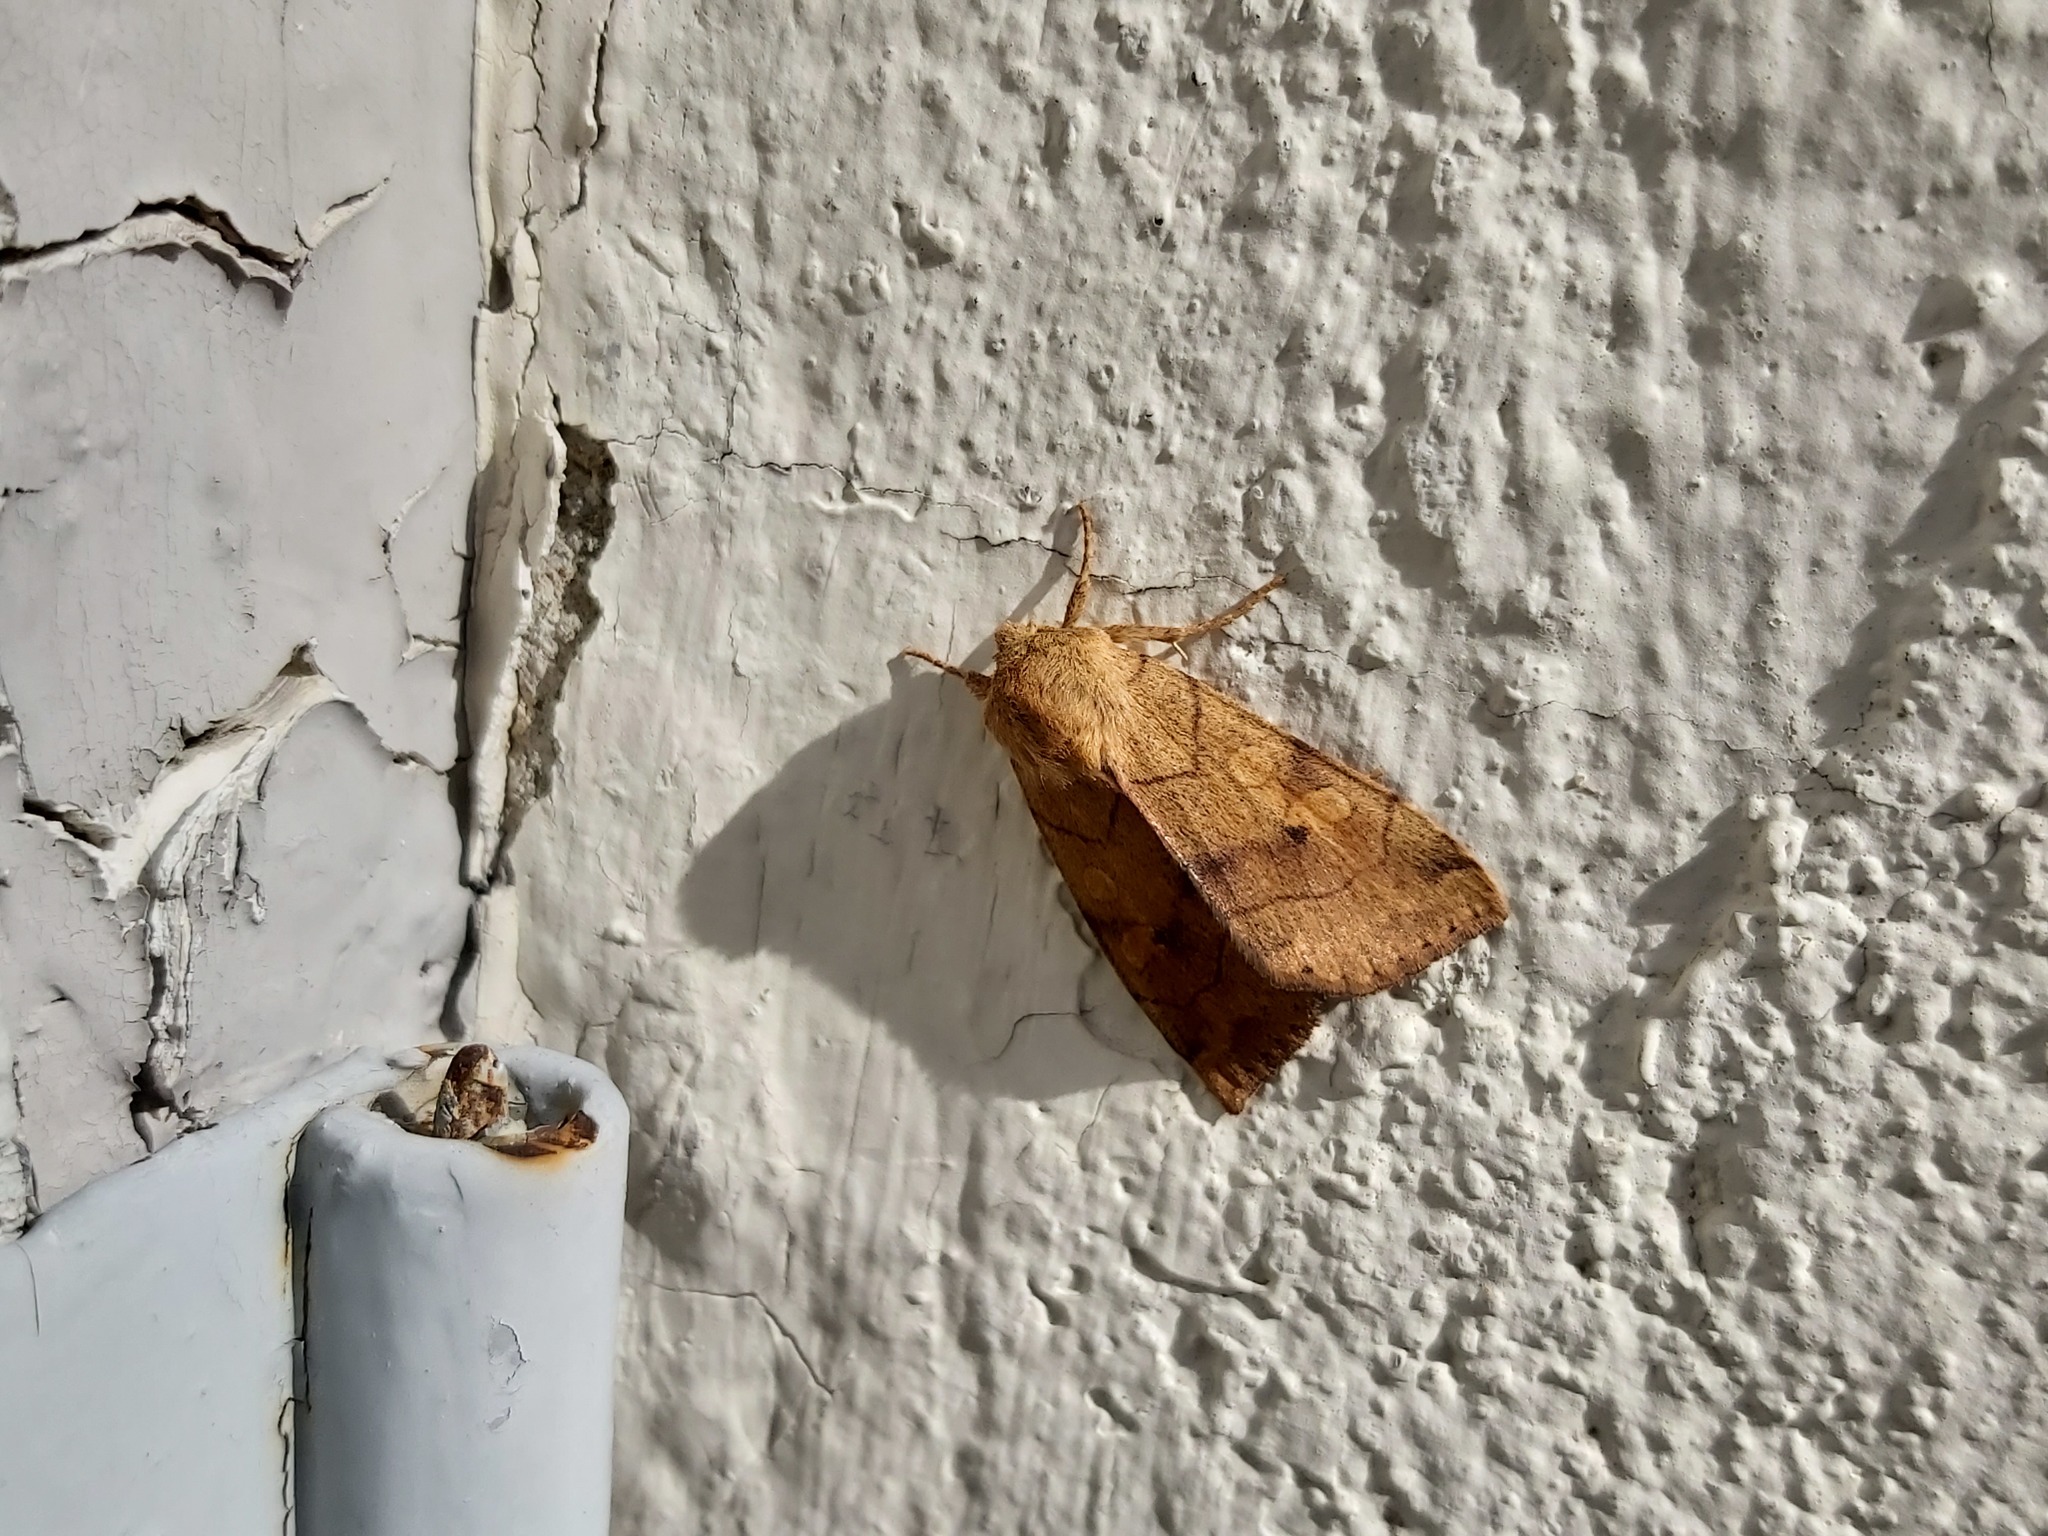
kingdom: Animalia
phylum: Arthropoda
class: Insecta
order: Lepidoptera
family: Noctuidae
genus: Enargia
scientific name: Enargia paleacea
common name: Angle-striped sallow
